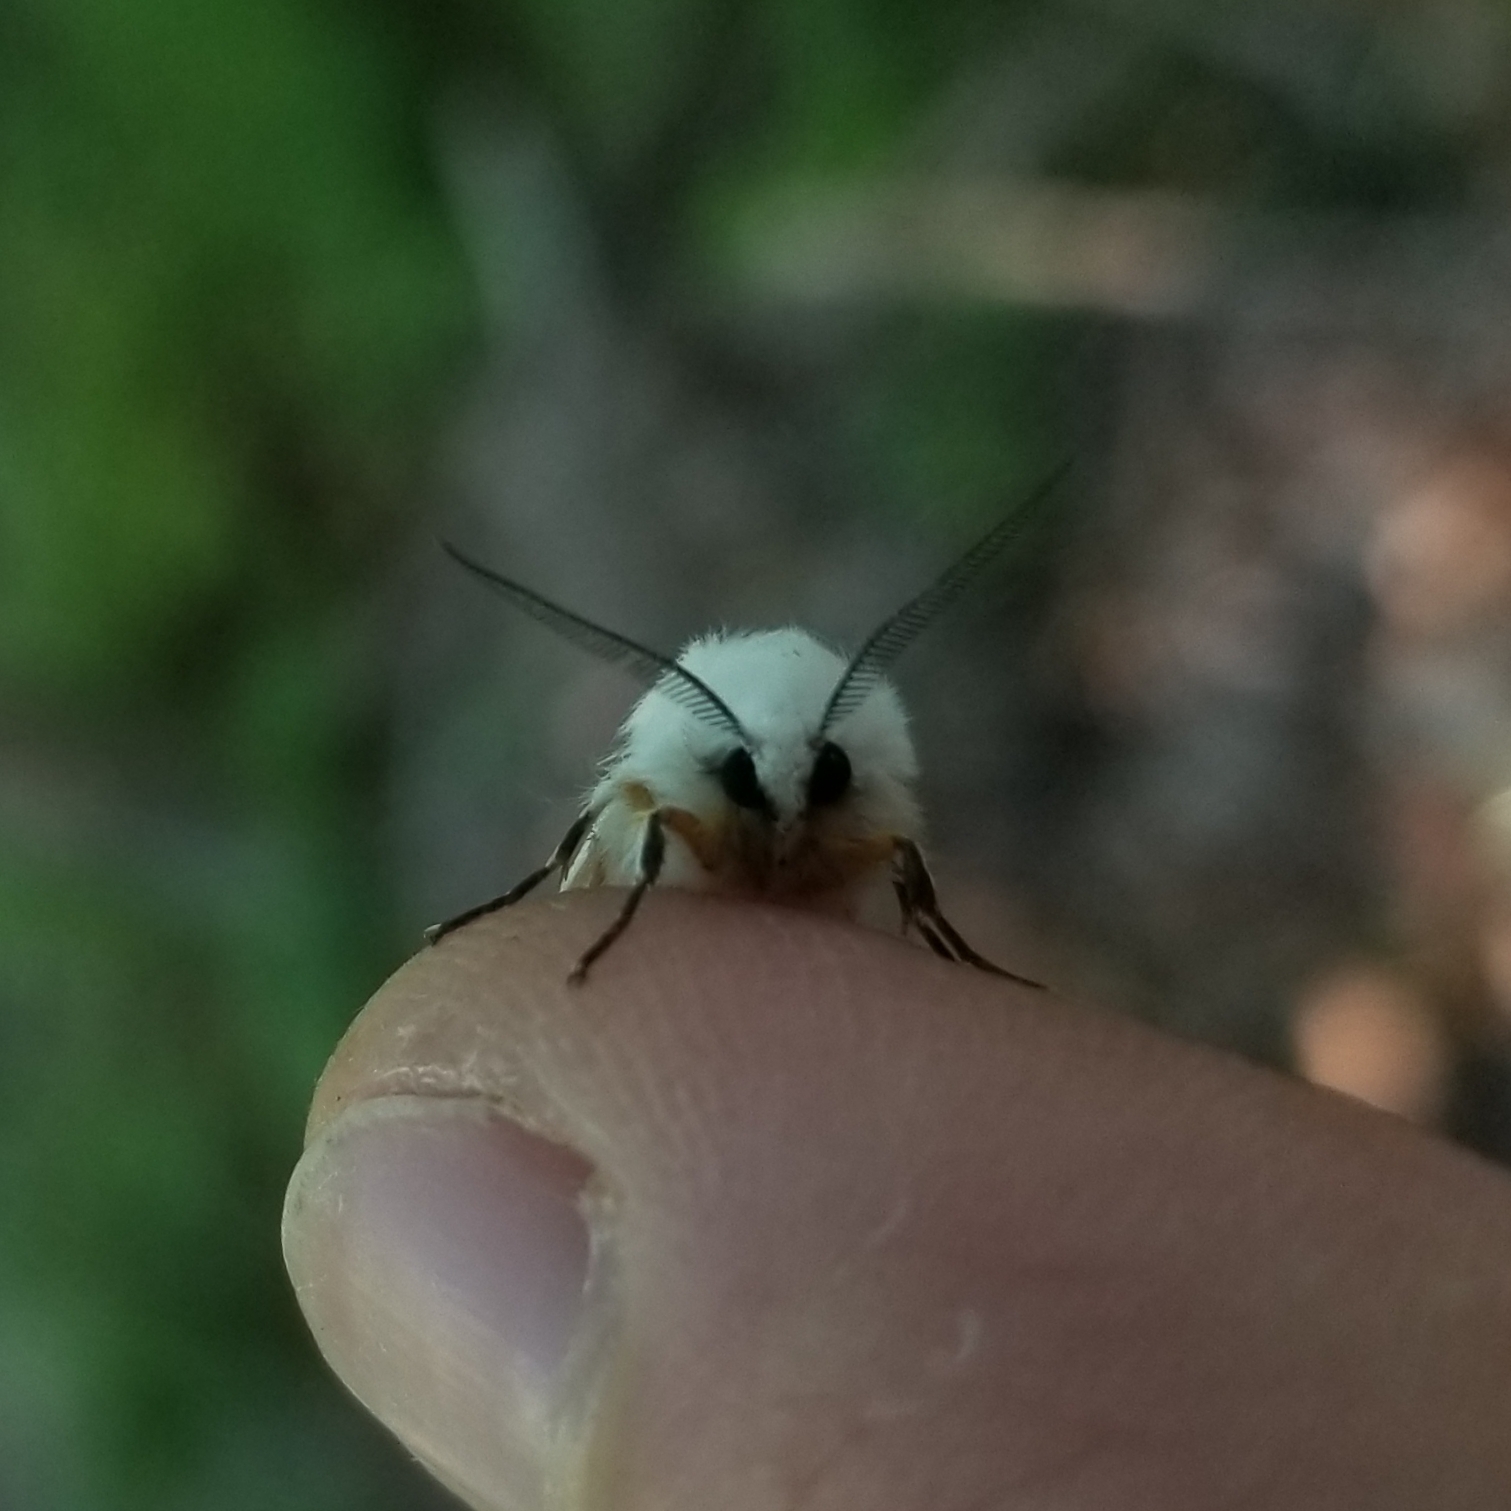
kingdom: Animalia
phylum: Arthropoda
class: Insecta
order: Lepidoptera
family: Erebidae
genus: Hyphantria
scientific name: Hyphantria cunea
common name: American white moth
